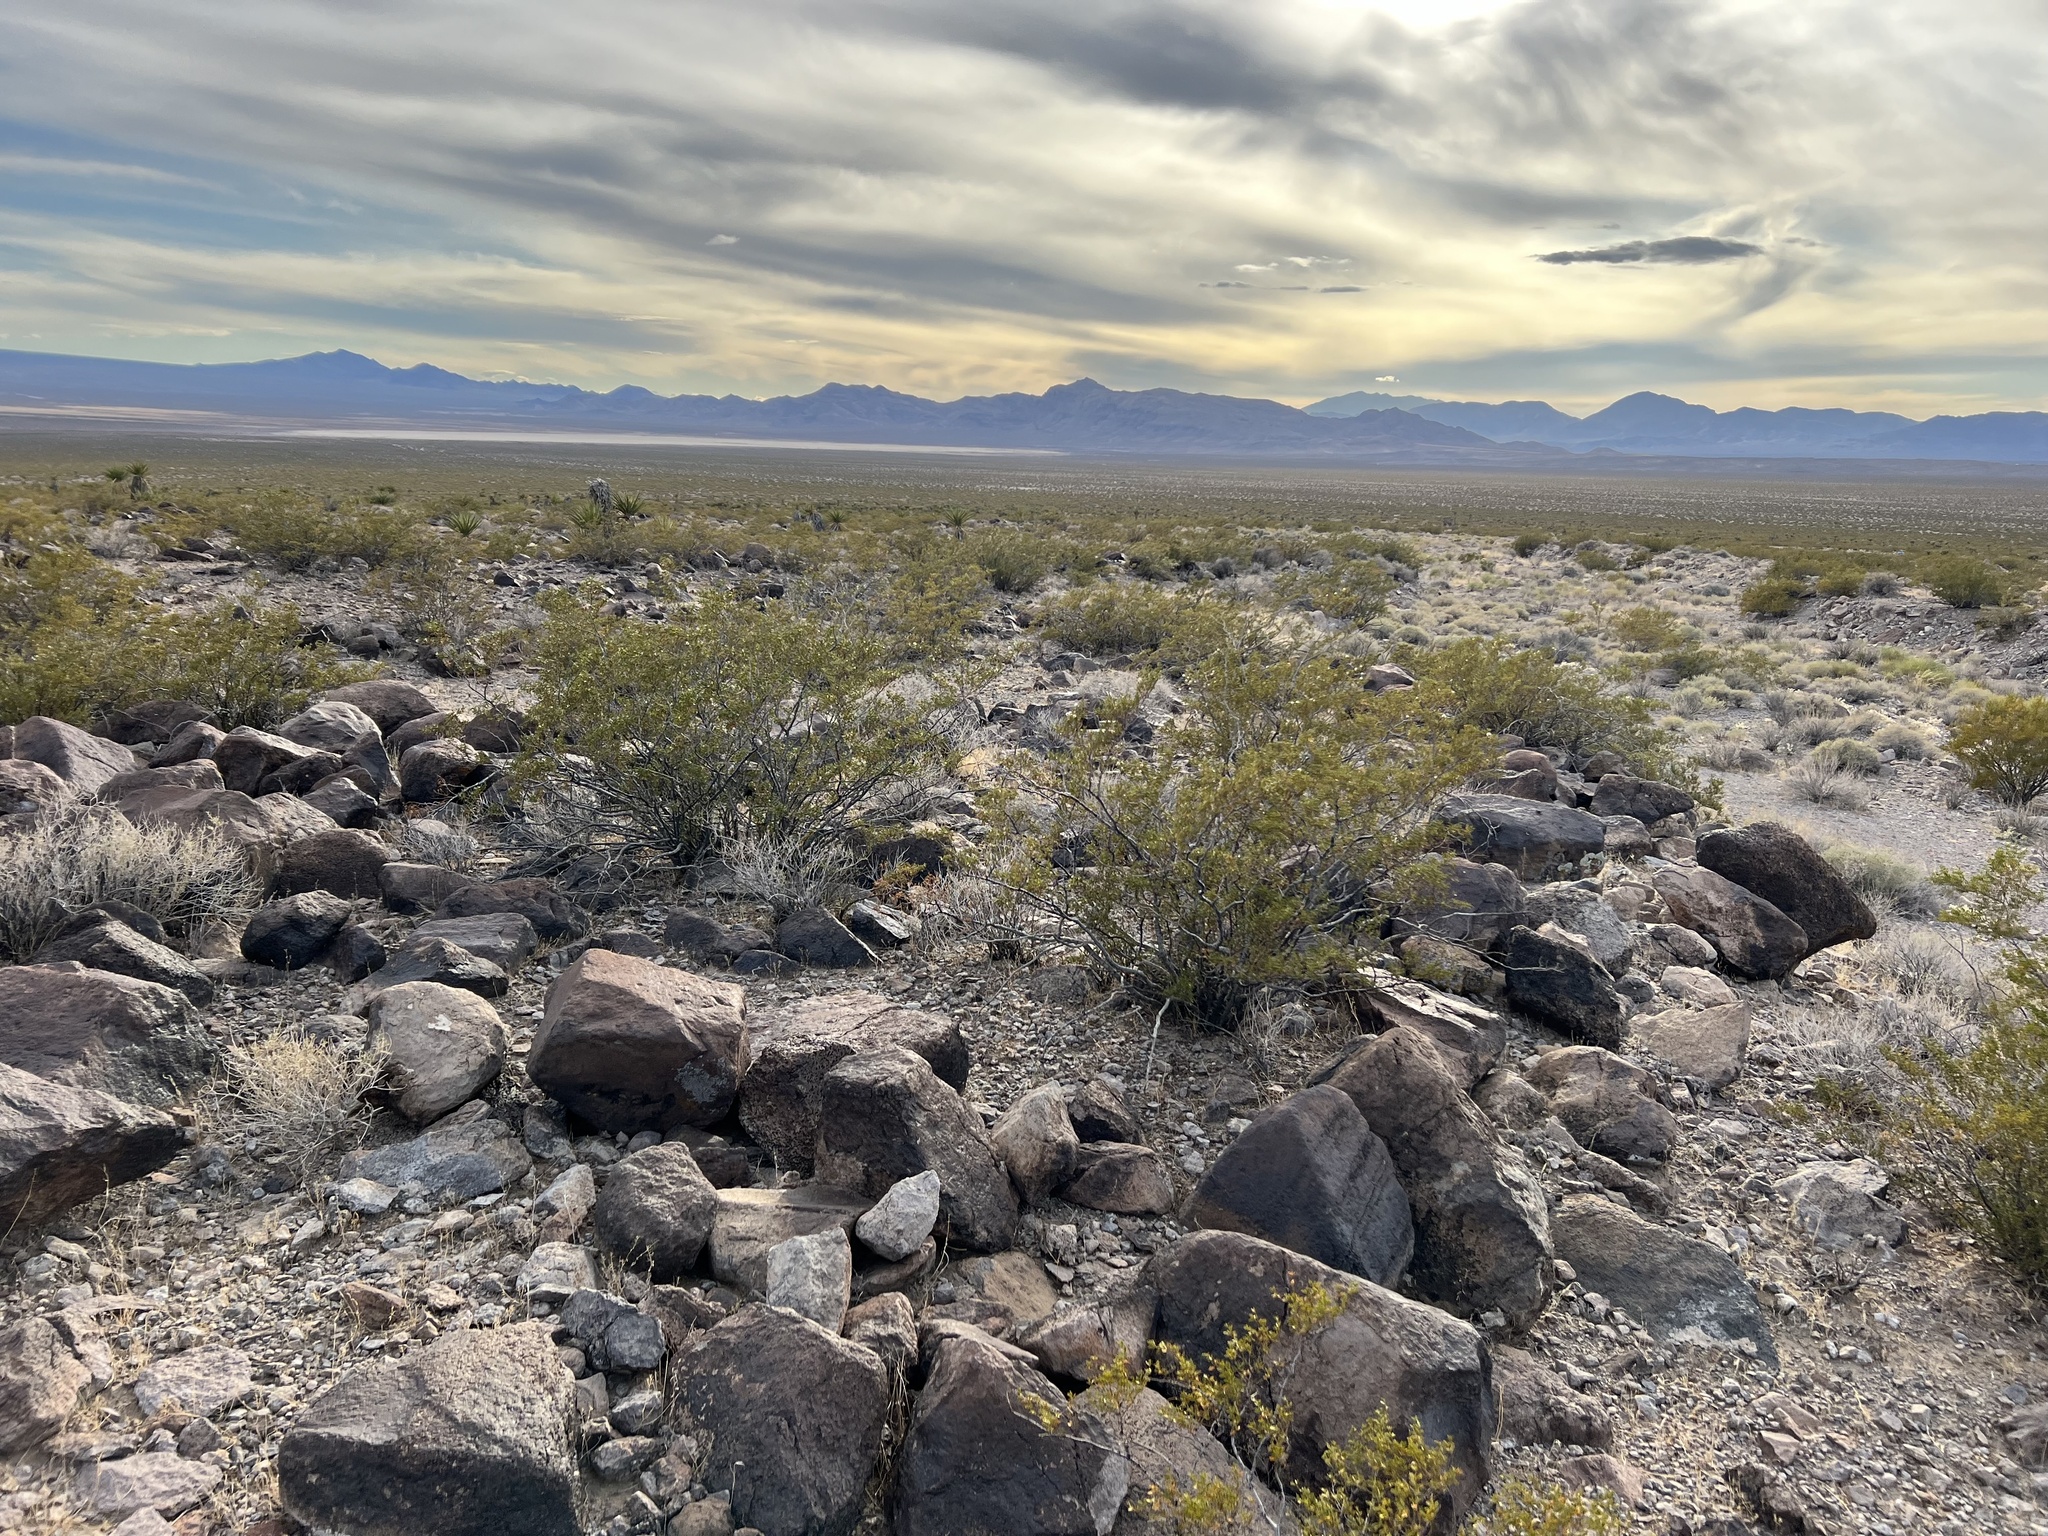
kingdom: Plantae
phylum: Tracheophyta
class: Magnoliopsida
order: Zygophyllales
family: Zygophyllaceae
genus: Larrea
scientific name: Larrea tridentata
